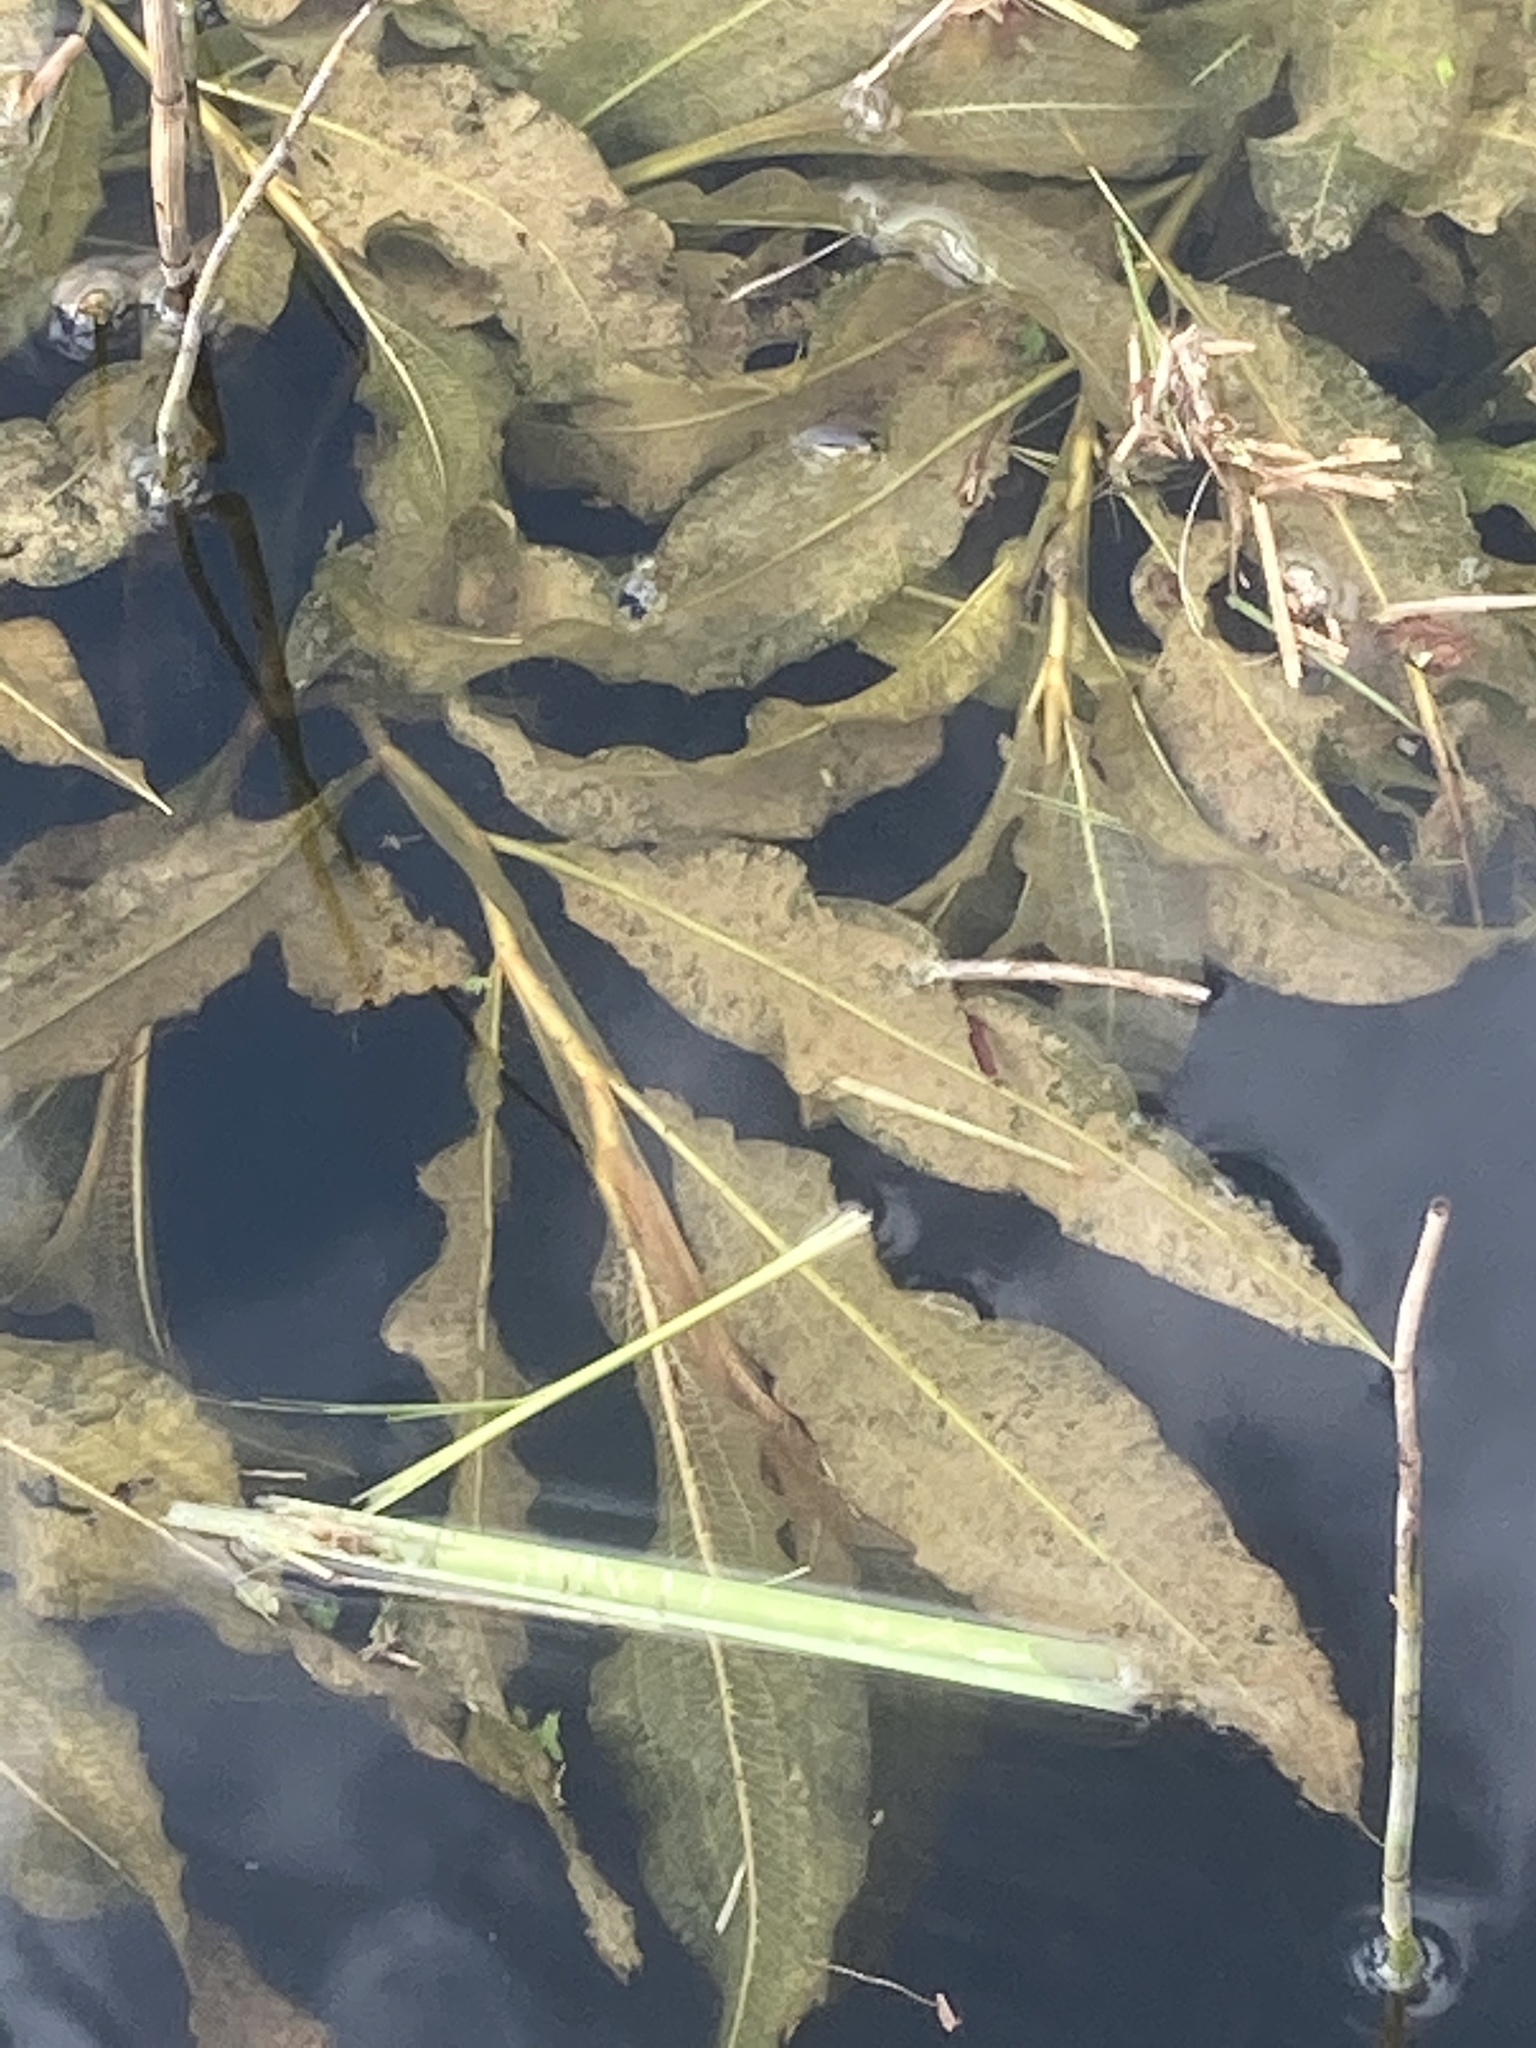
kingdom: Plantae
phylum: Tracheophyta
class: Liliopsida
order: Alismatales
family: Potamogetonaceae
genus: Potamogeton
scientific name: Potamogeton lucens
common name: Shining pondweed
